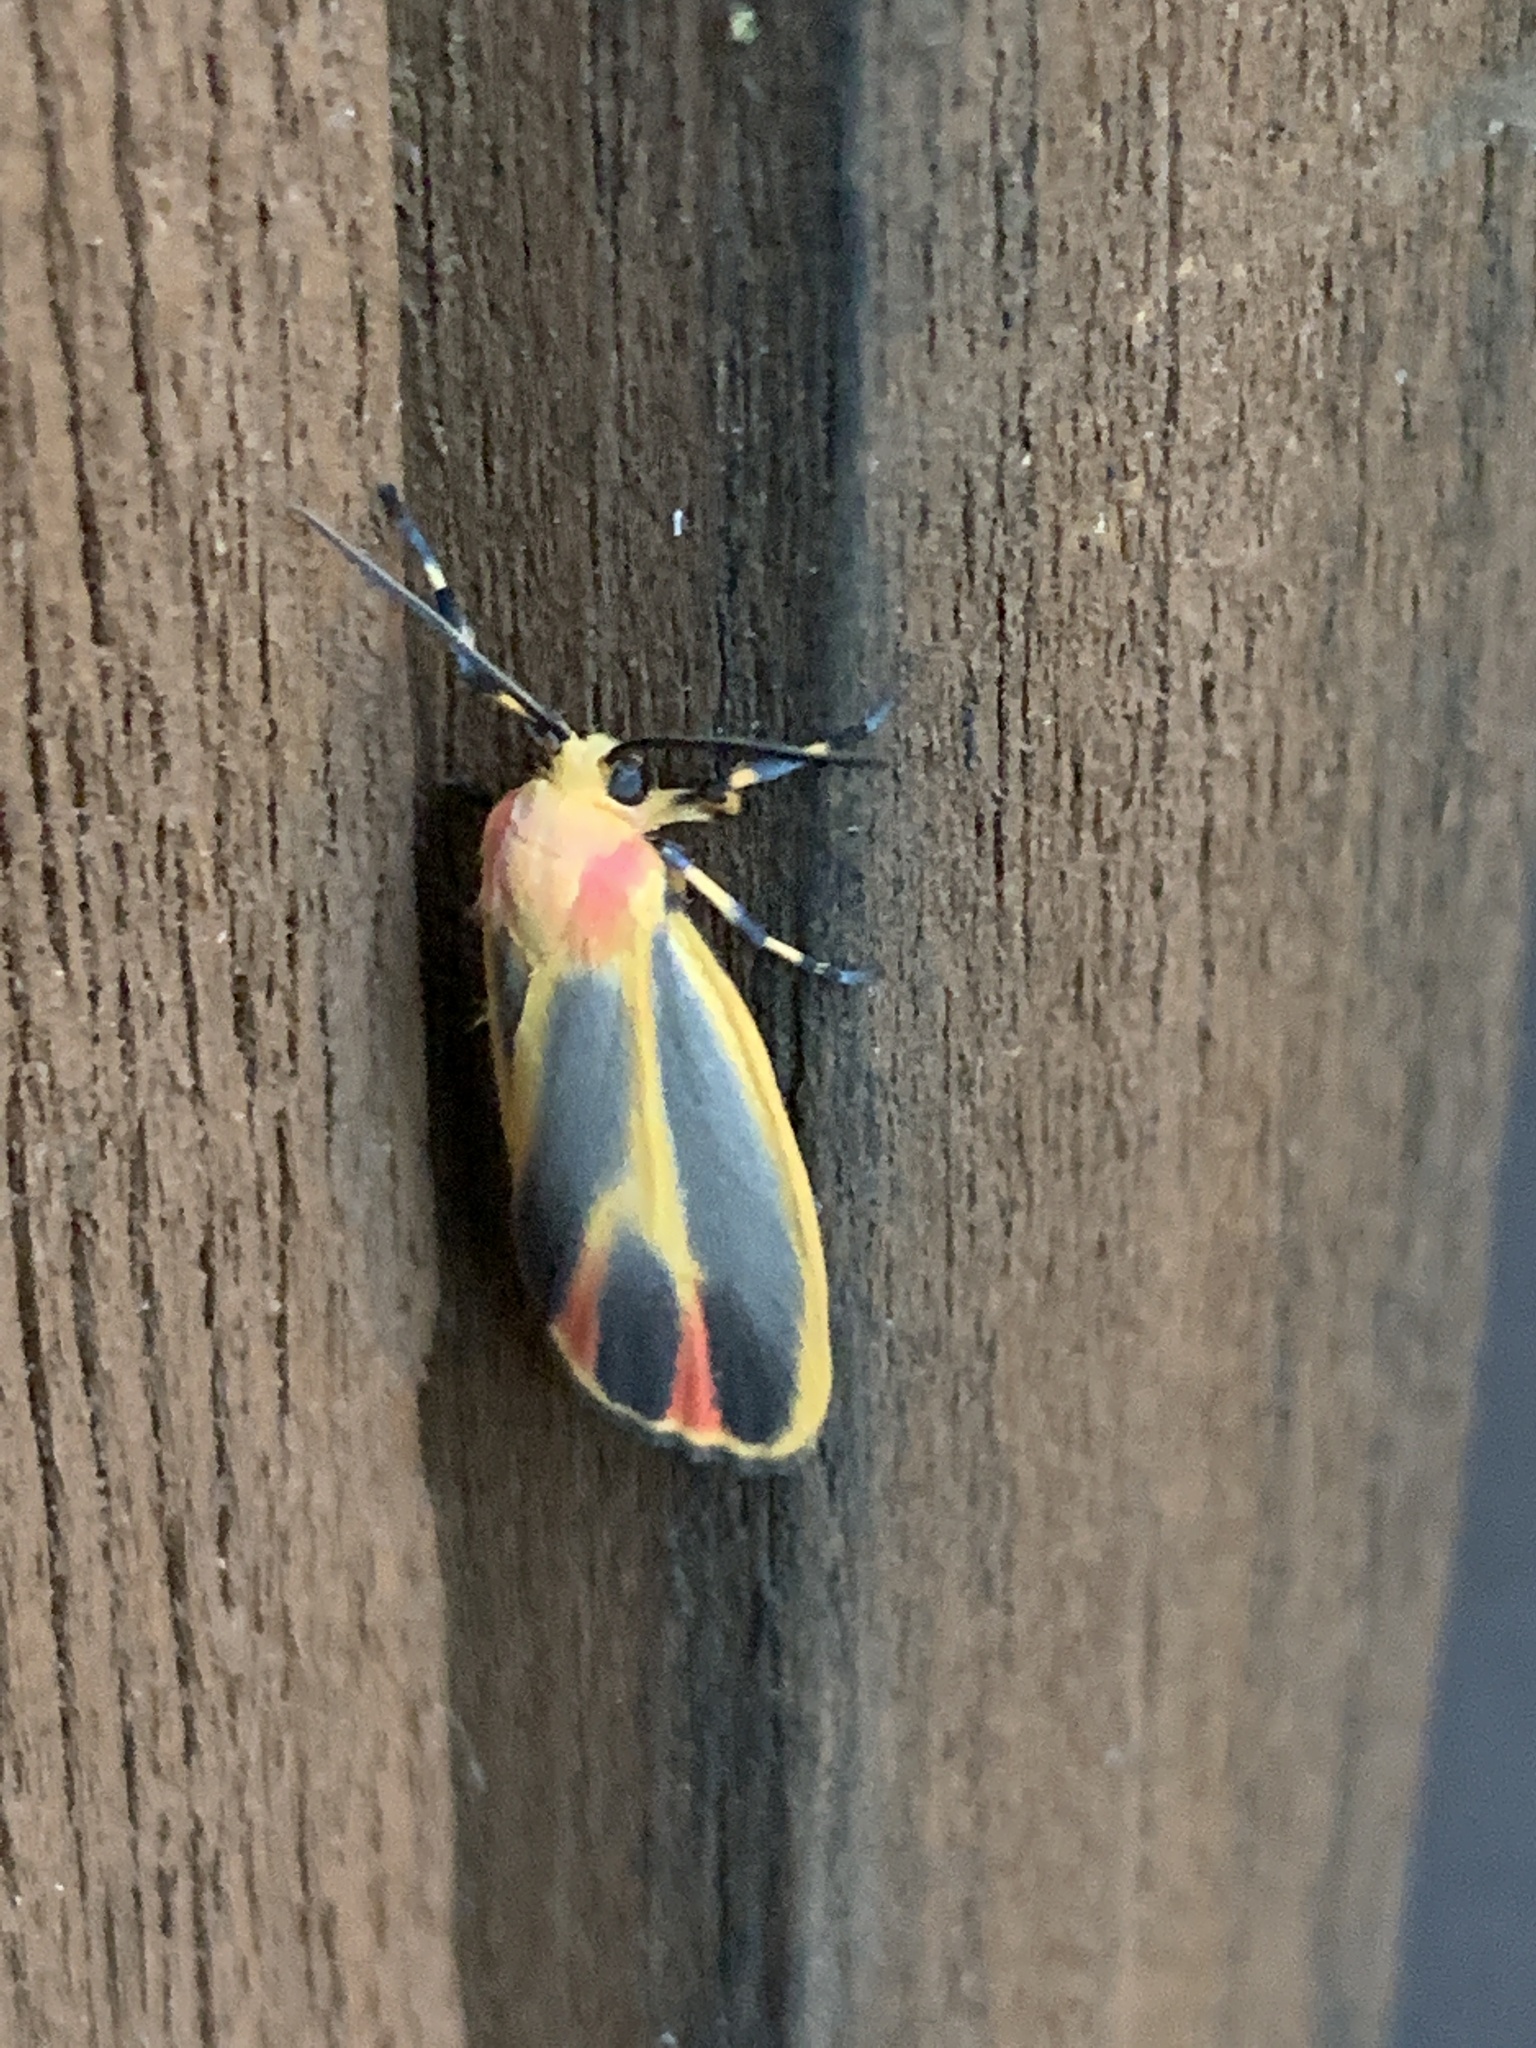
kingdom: Animalia
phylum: Arthropoda
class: Insecta
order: Lepidoptera
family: Erebidae
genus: Hypoprepia
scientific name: Hypoprepia fucosa
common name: Painted lichen moth
